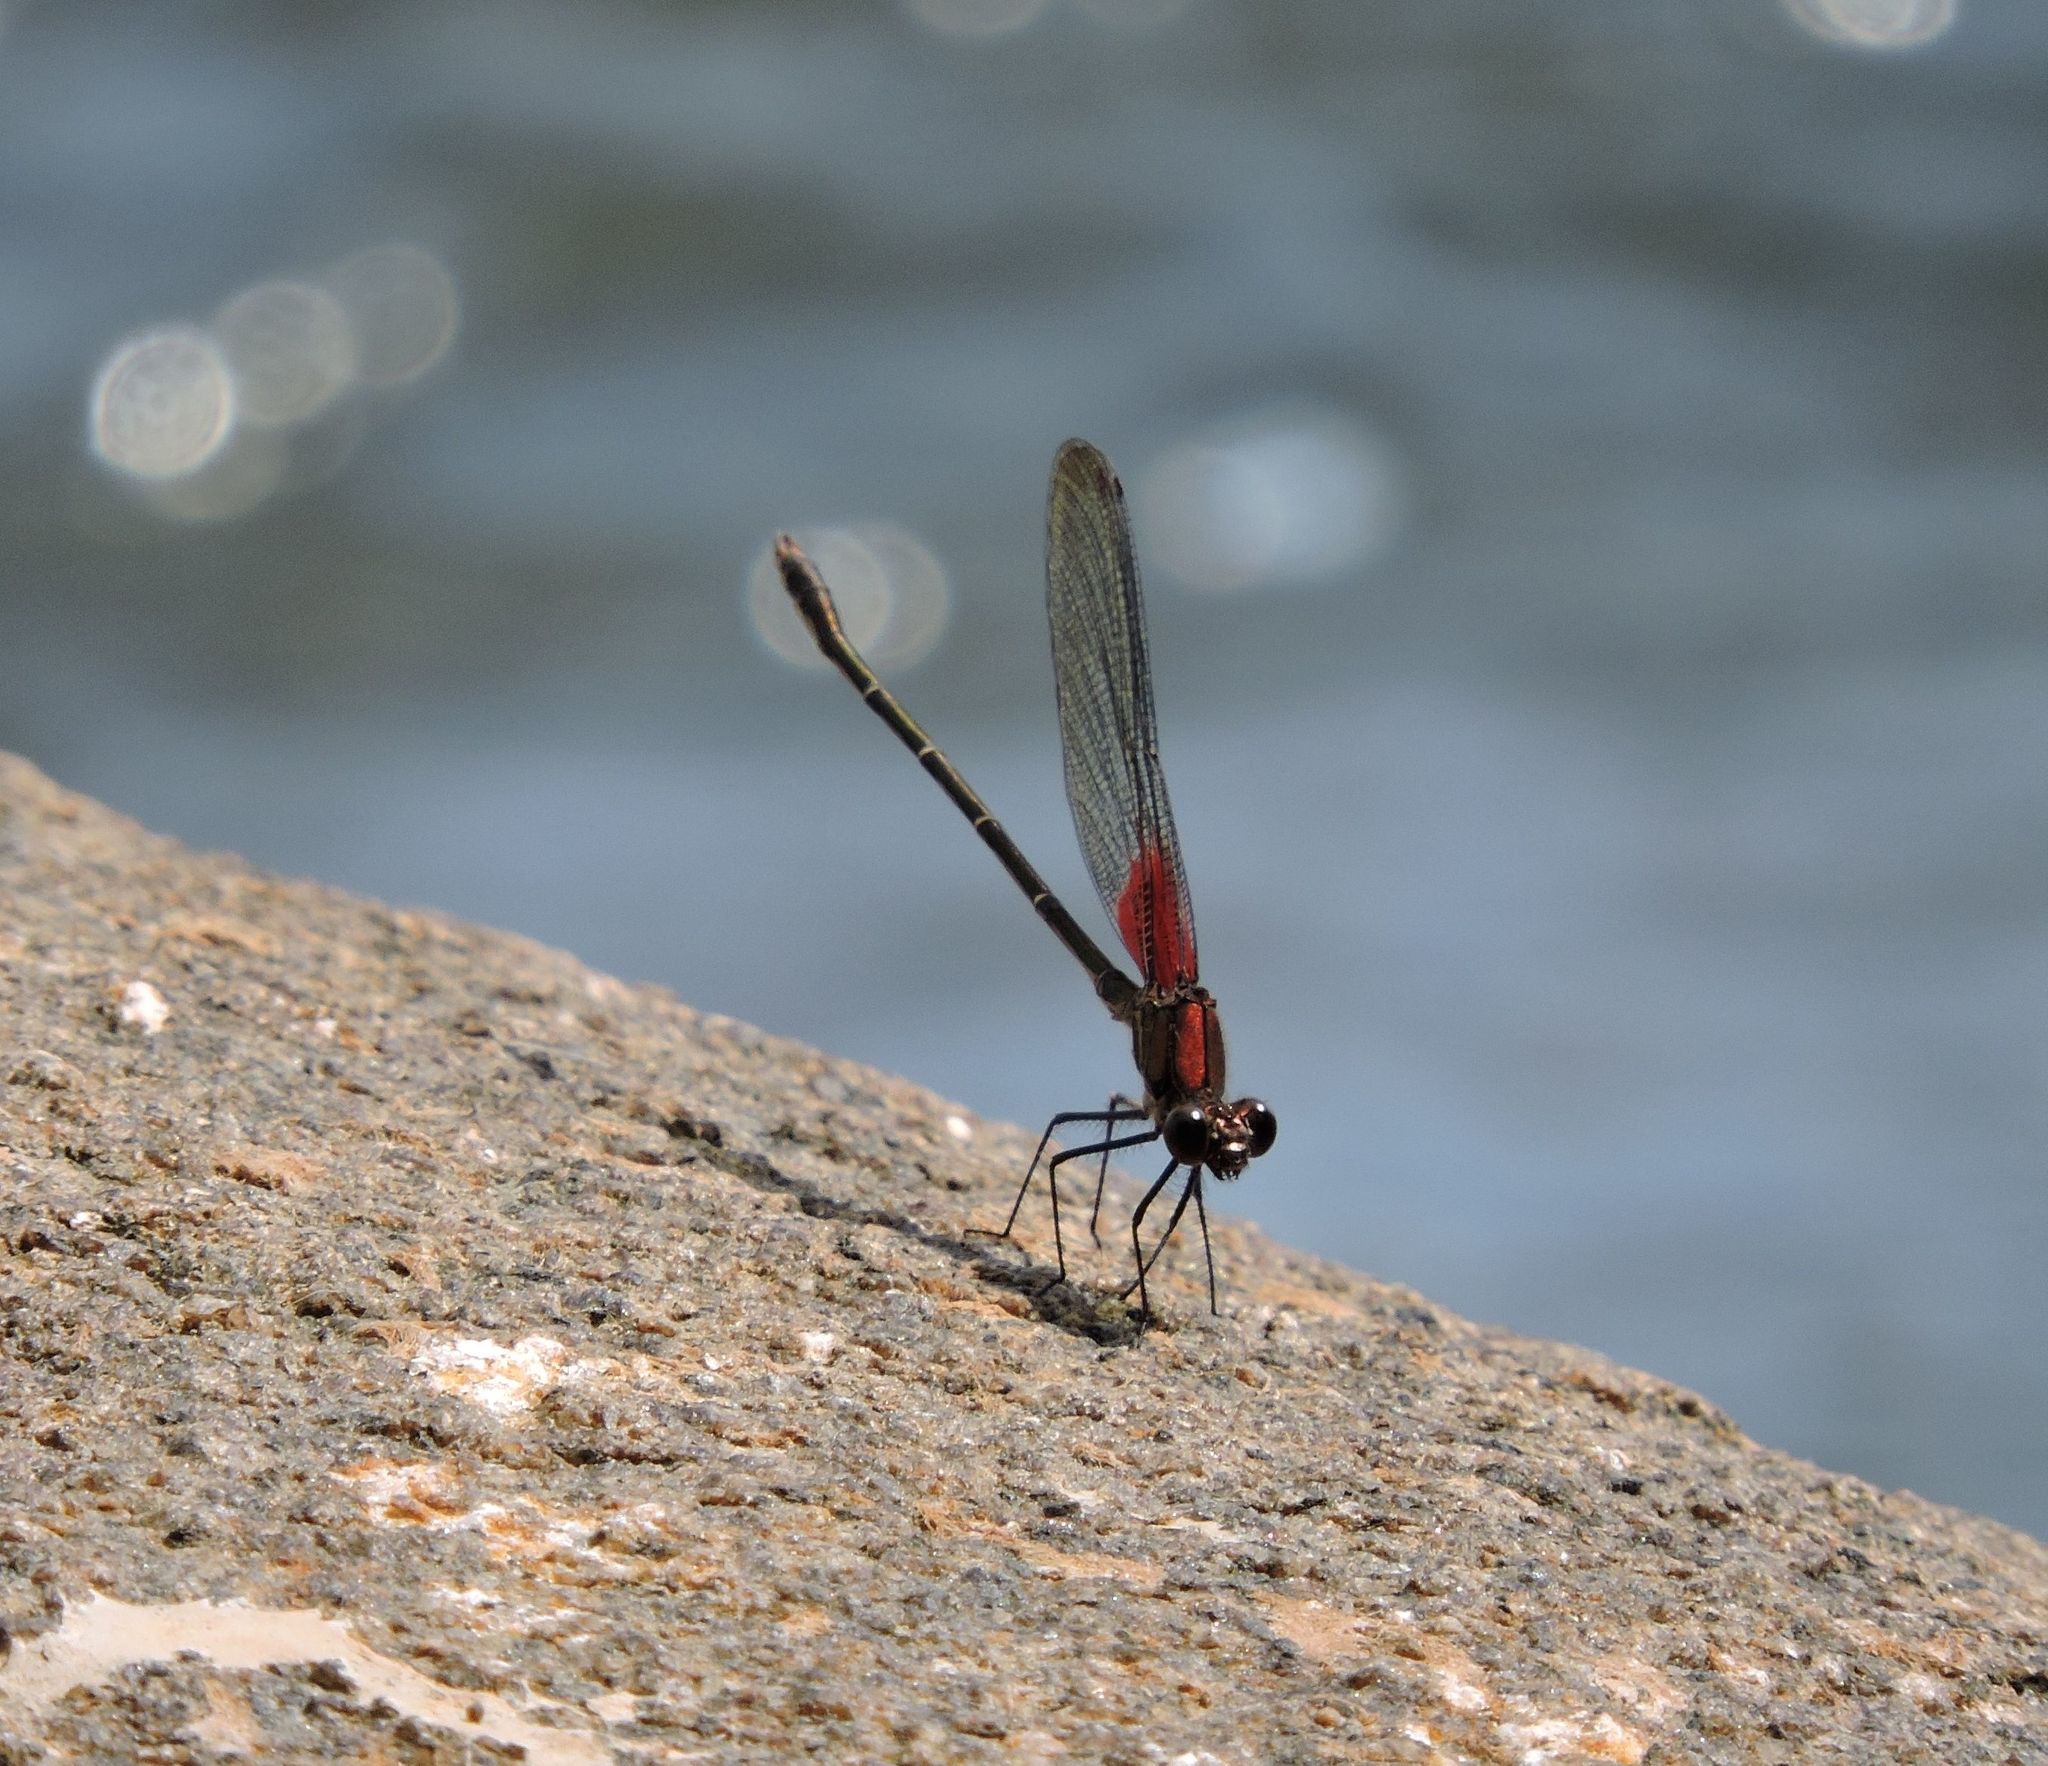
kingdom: Animalia
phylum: Arthropoda
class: Insecta
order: Odonata
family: Calopterygidae
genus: Hetaerina
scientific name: Hetaerina americana
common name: American rubyspot
